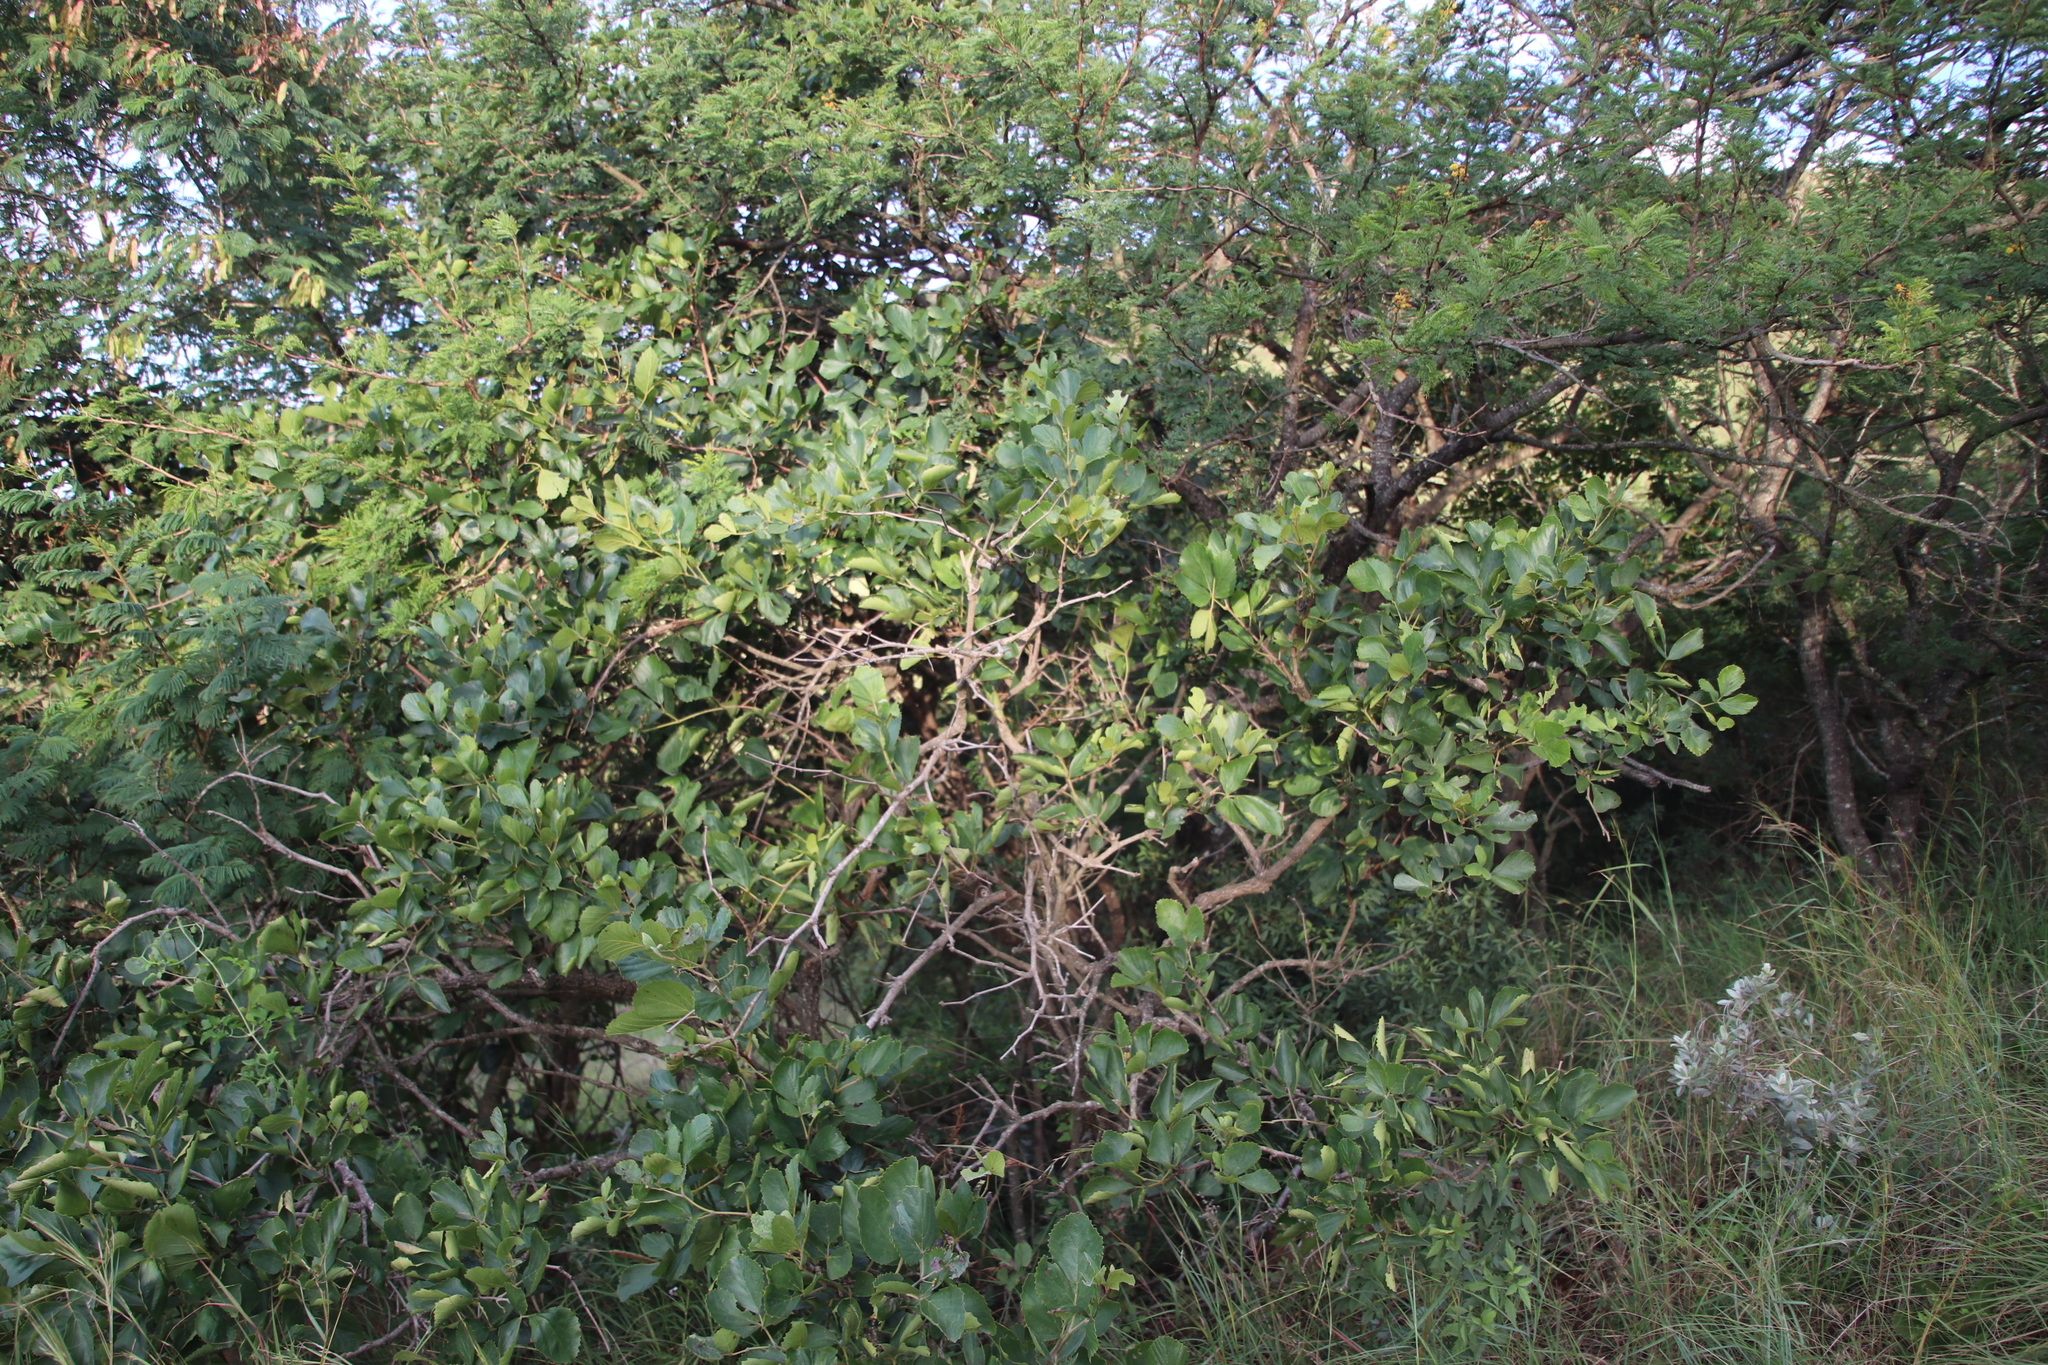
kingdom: Plantae
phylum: Tracheophyta
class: Magnoliopsida
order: Vitales
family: Vitaceae
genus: Rhoicissus
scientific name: Rhoicissus tridentata
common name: Common forest grape
